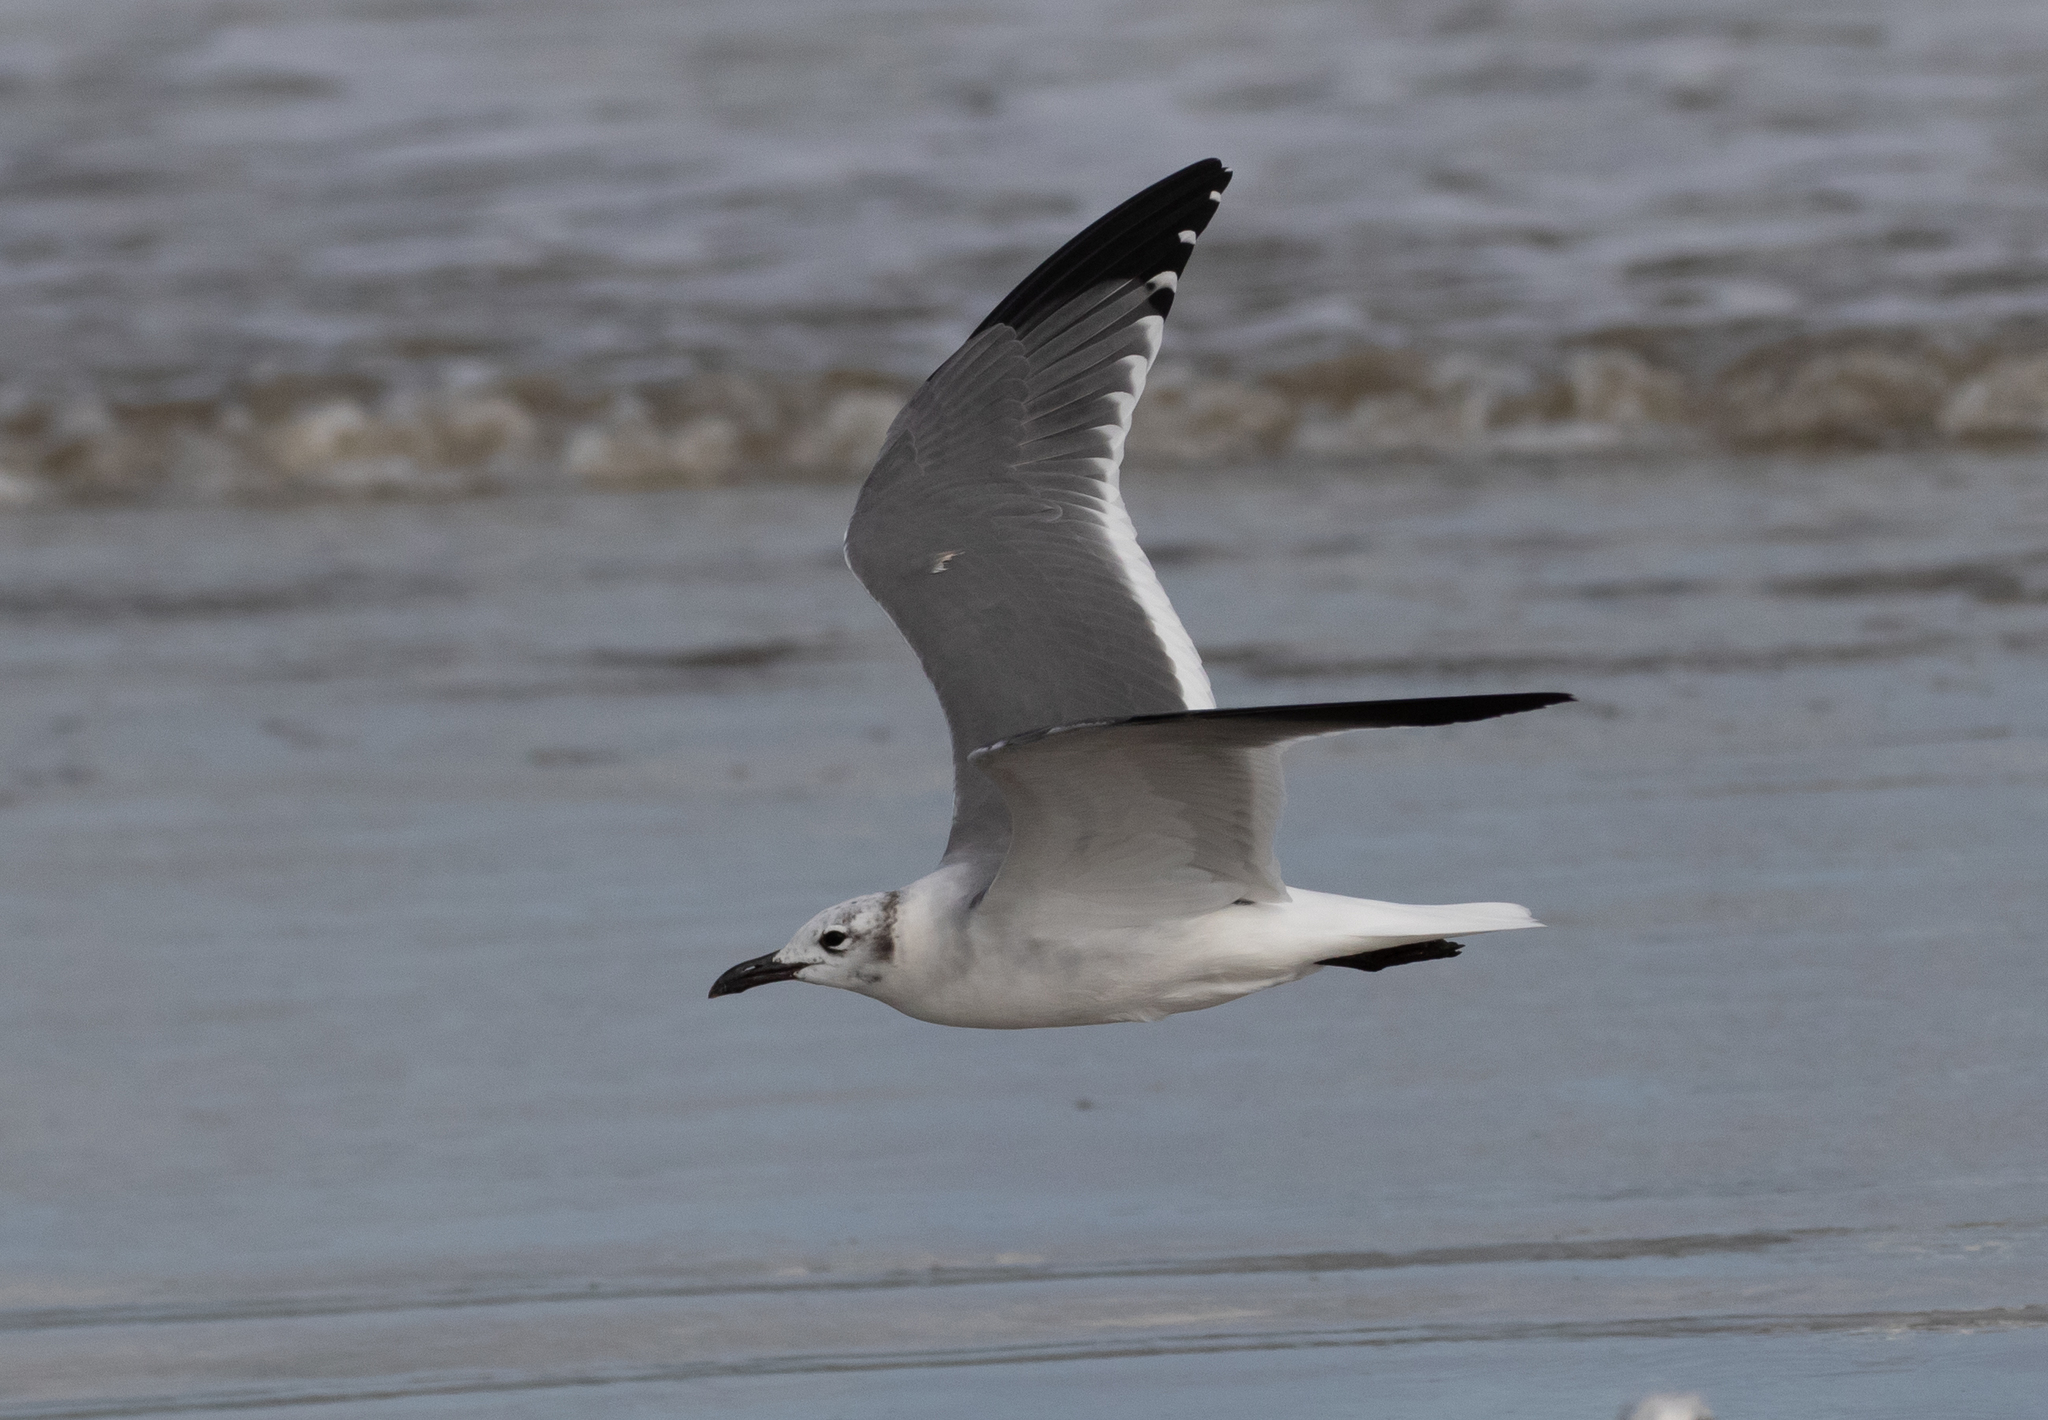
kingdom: Animalia
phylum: Chordata
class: Aves
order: Charadriiformes
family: Laridae
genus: Leucophaeus
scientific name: Leucophaeus atricilla
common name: Laughing gull
